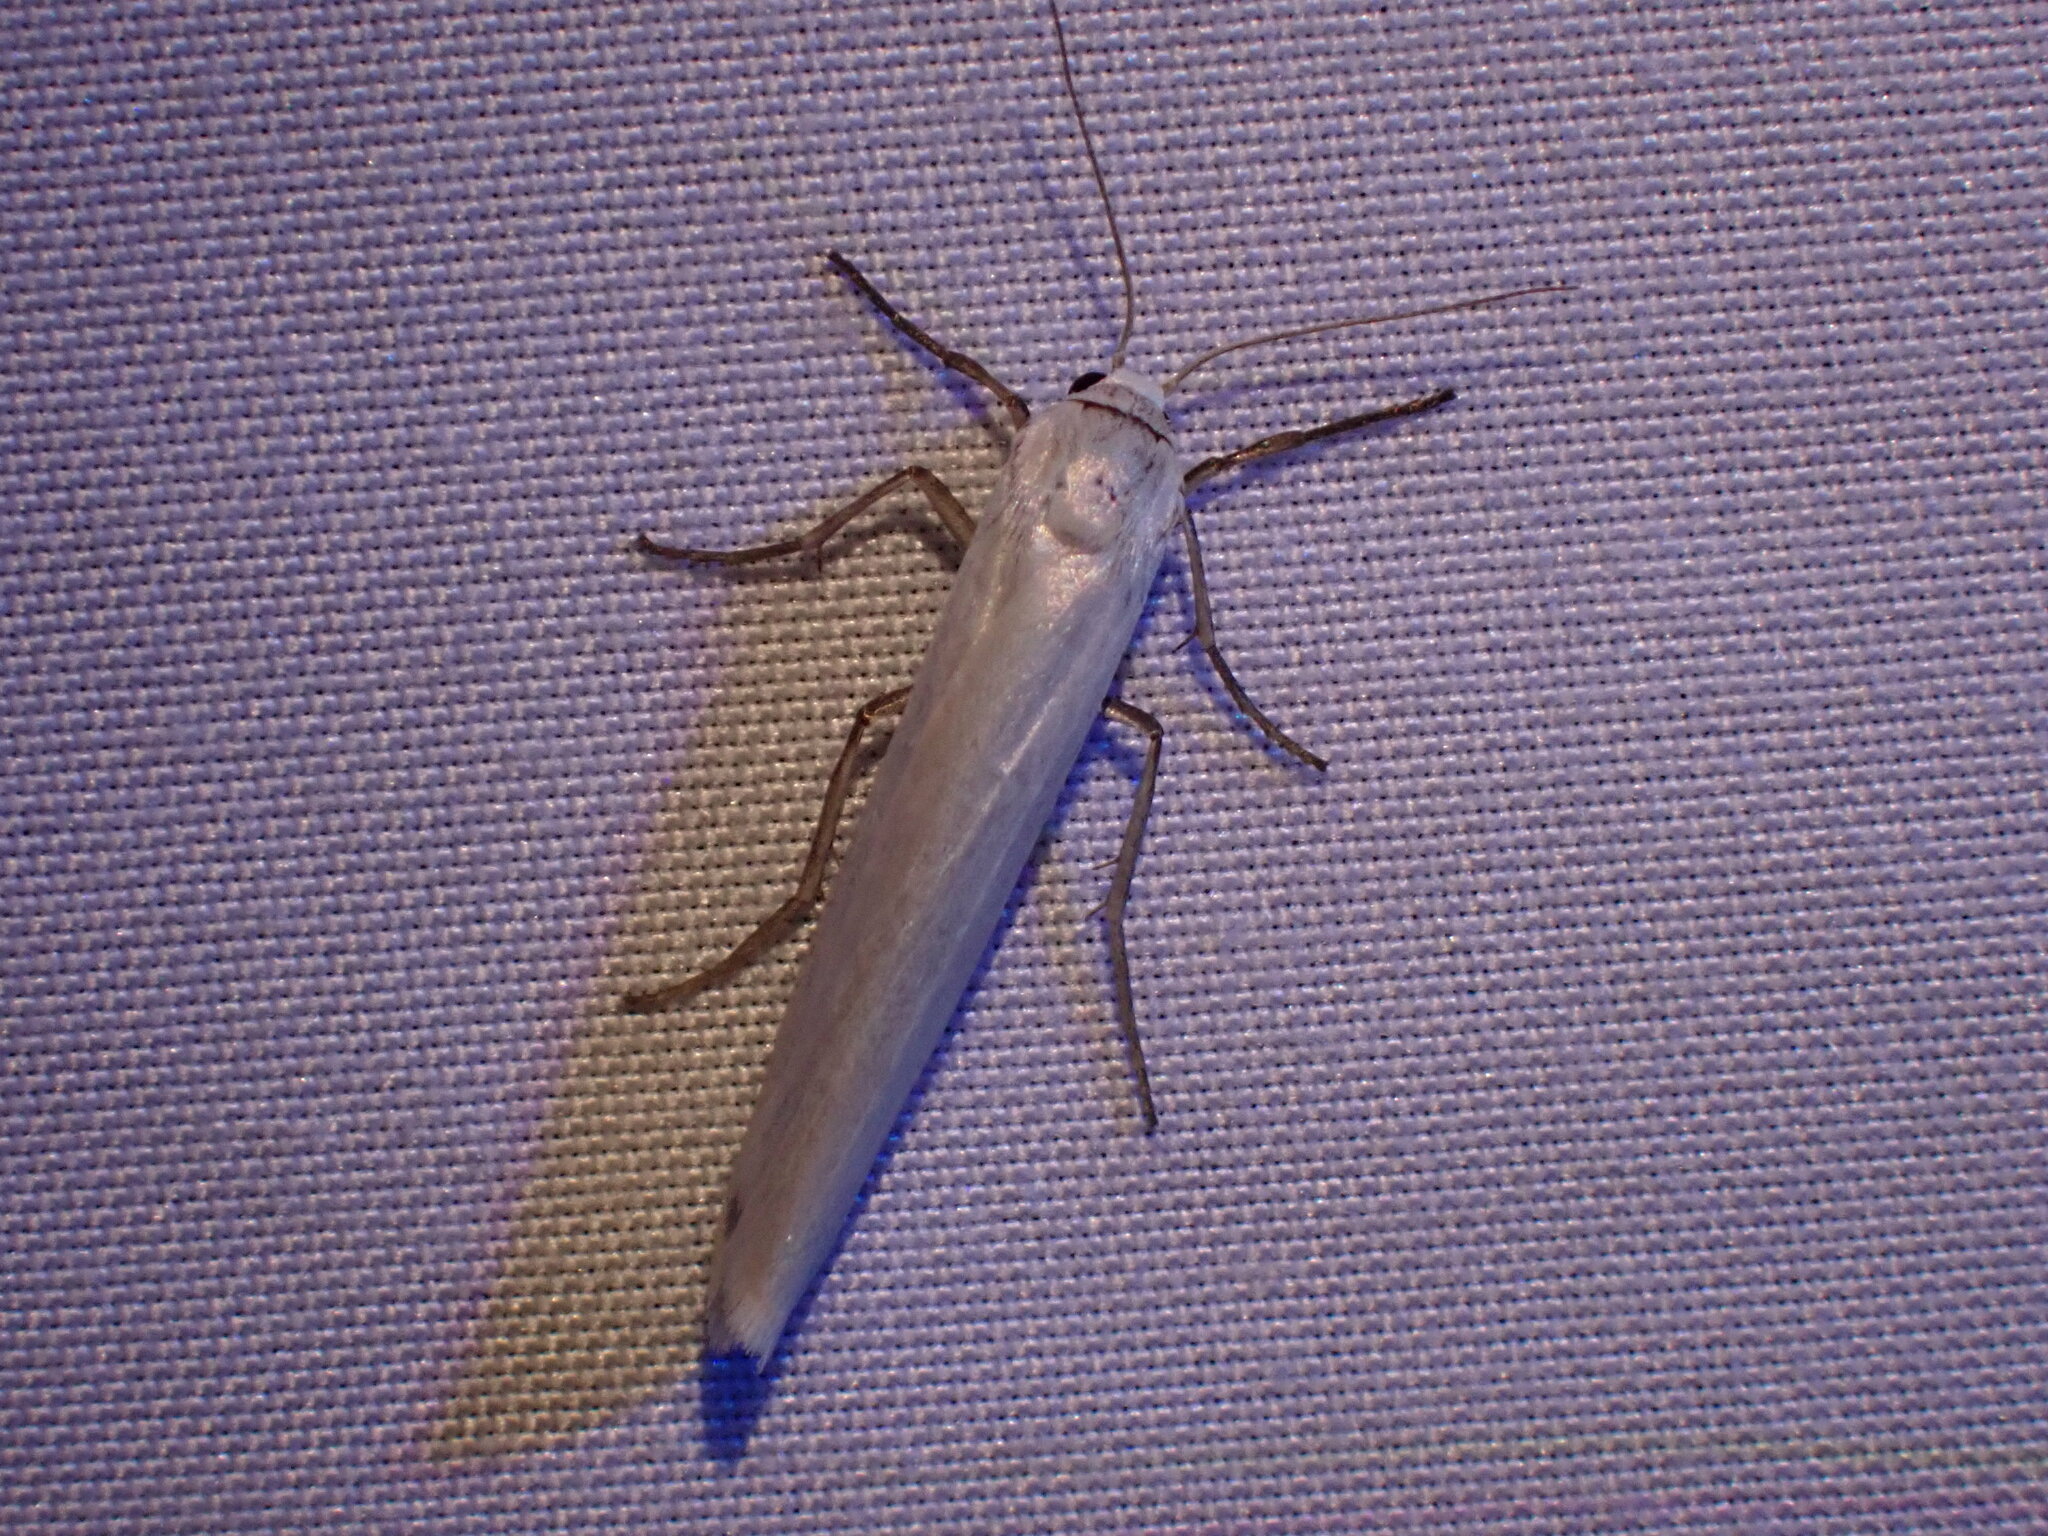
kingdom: Animalia
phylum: Arthropoda
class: Insecta
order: Lepidoptera
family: Erebidae
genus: Crambidia
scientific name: Crambidia casta
